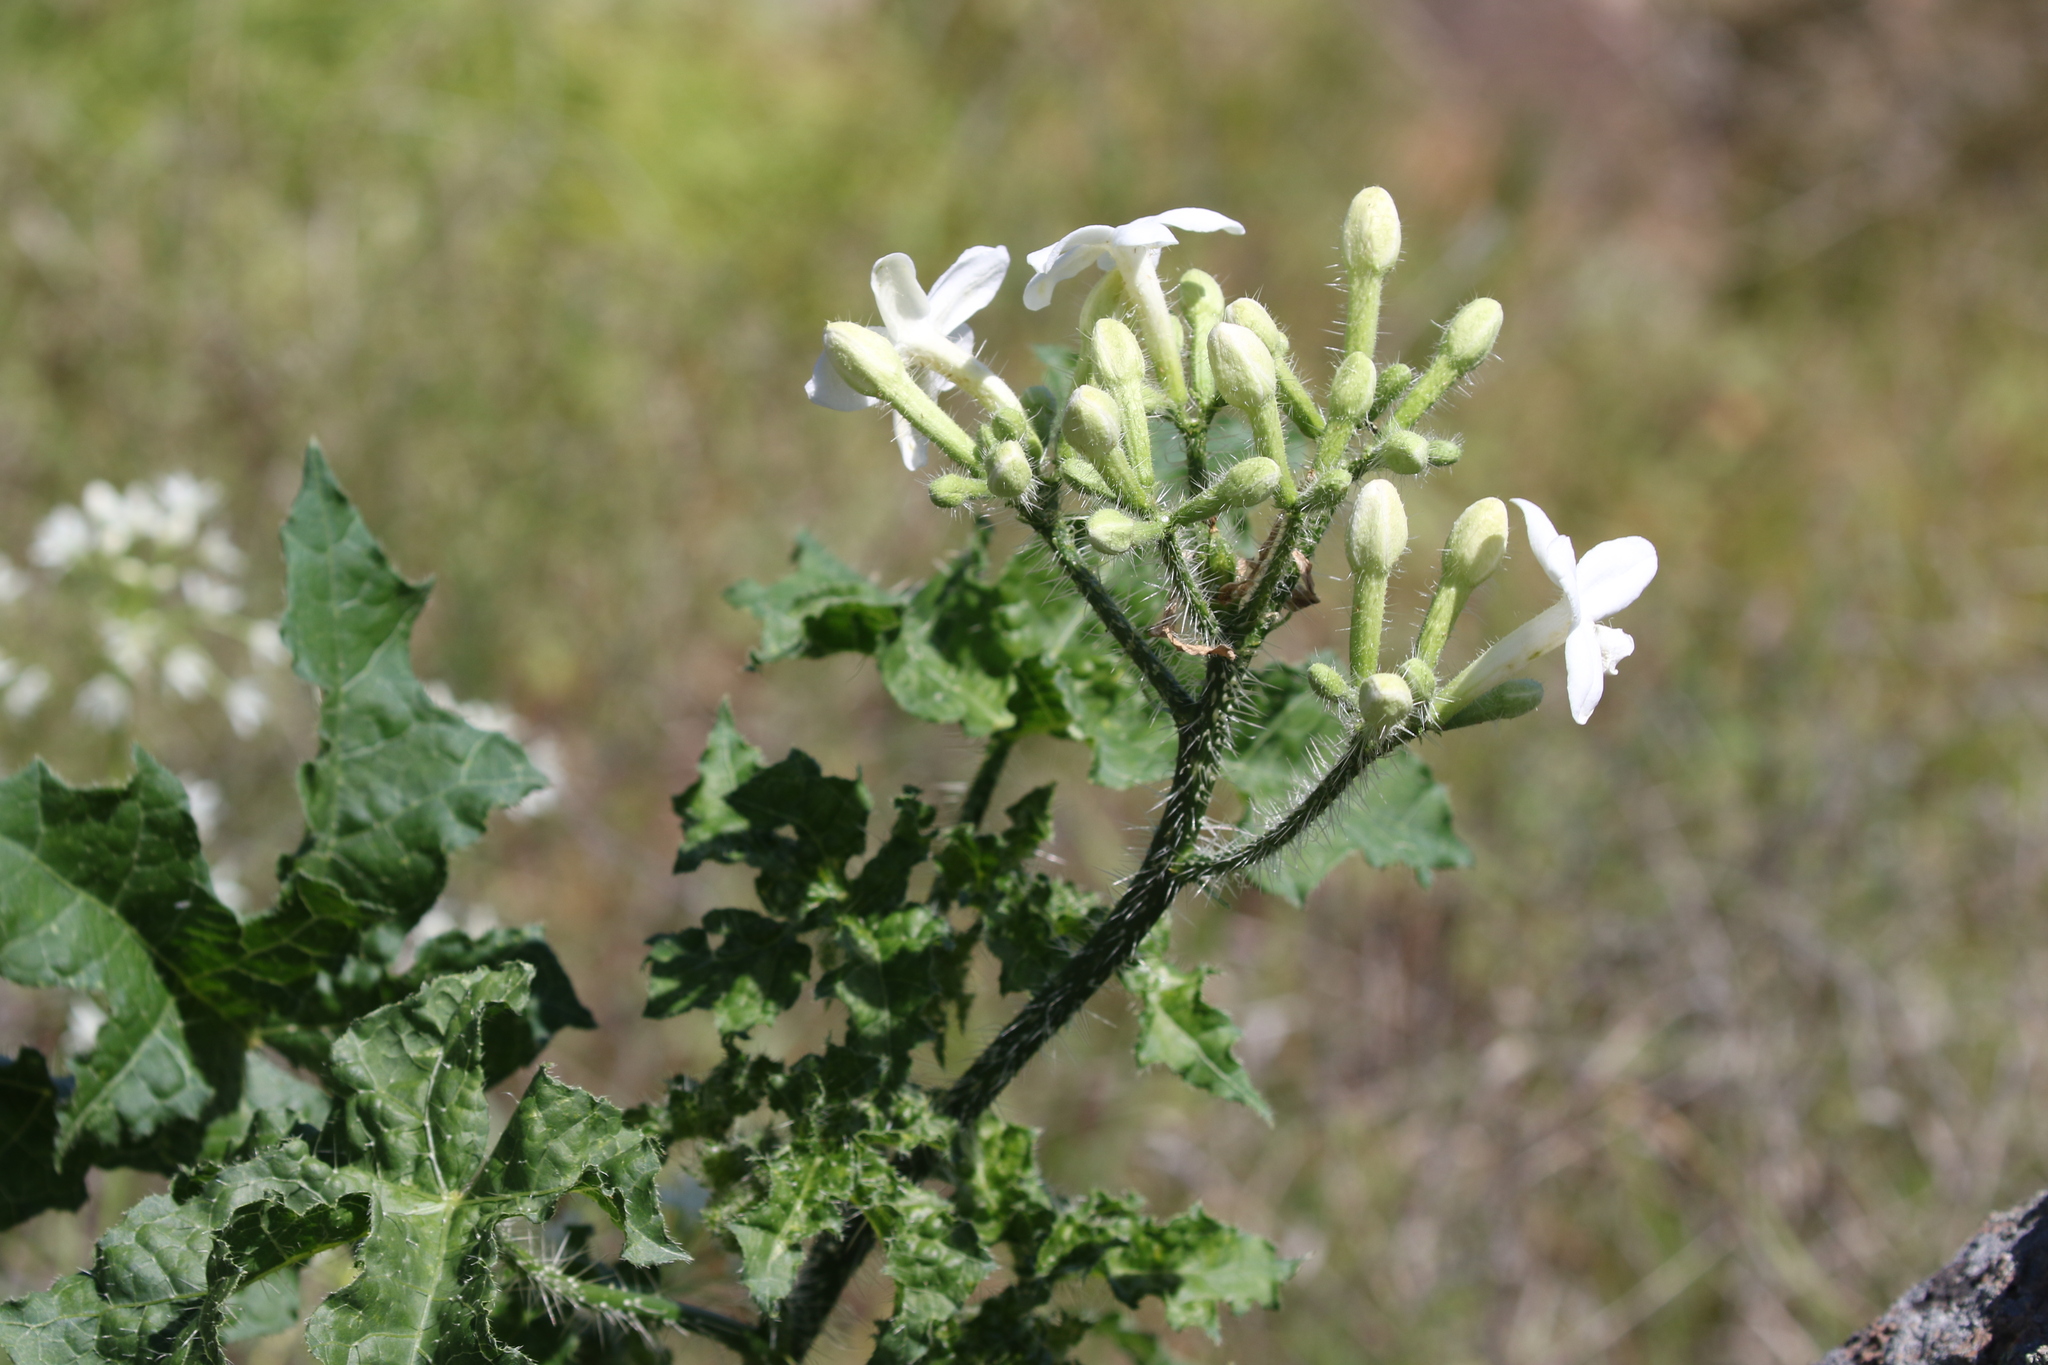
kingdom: Plantae
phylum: Tracheophyta
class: Magnoliopsida
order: Malpighiales
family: Euphorbiaceae
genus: Cnidoscolus
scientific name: Cnidoscolus texanus
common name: Texas bull-nettle
